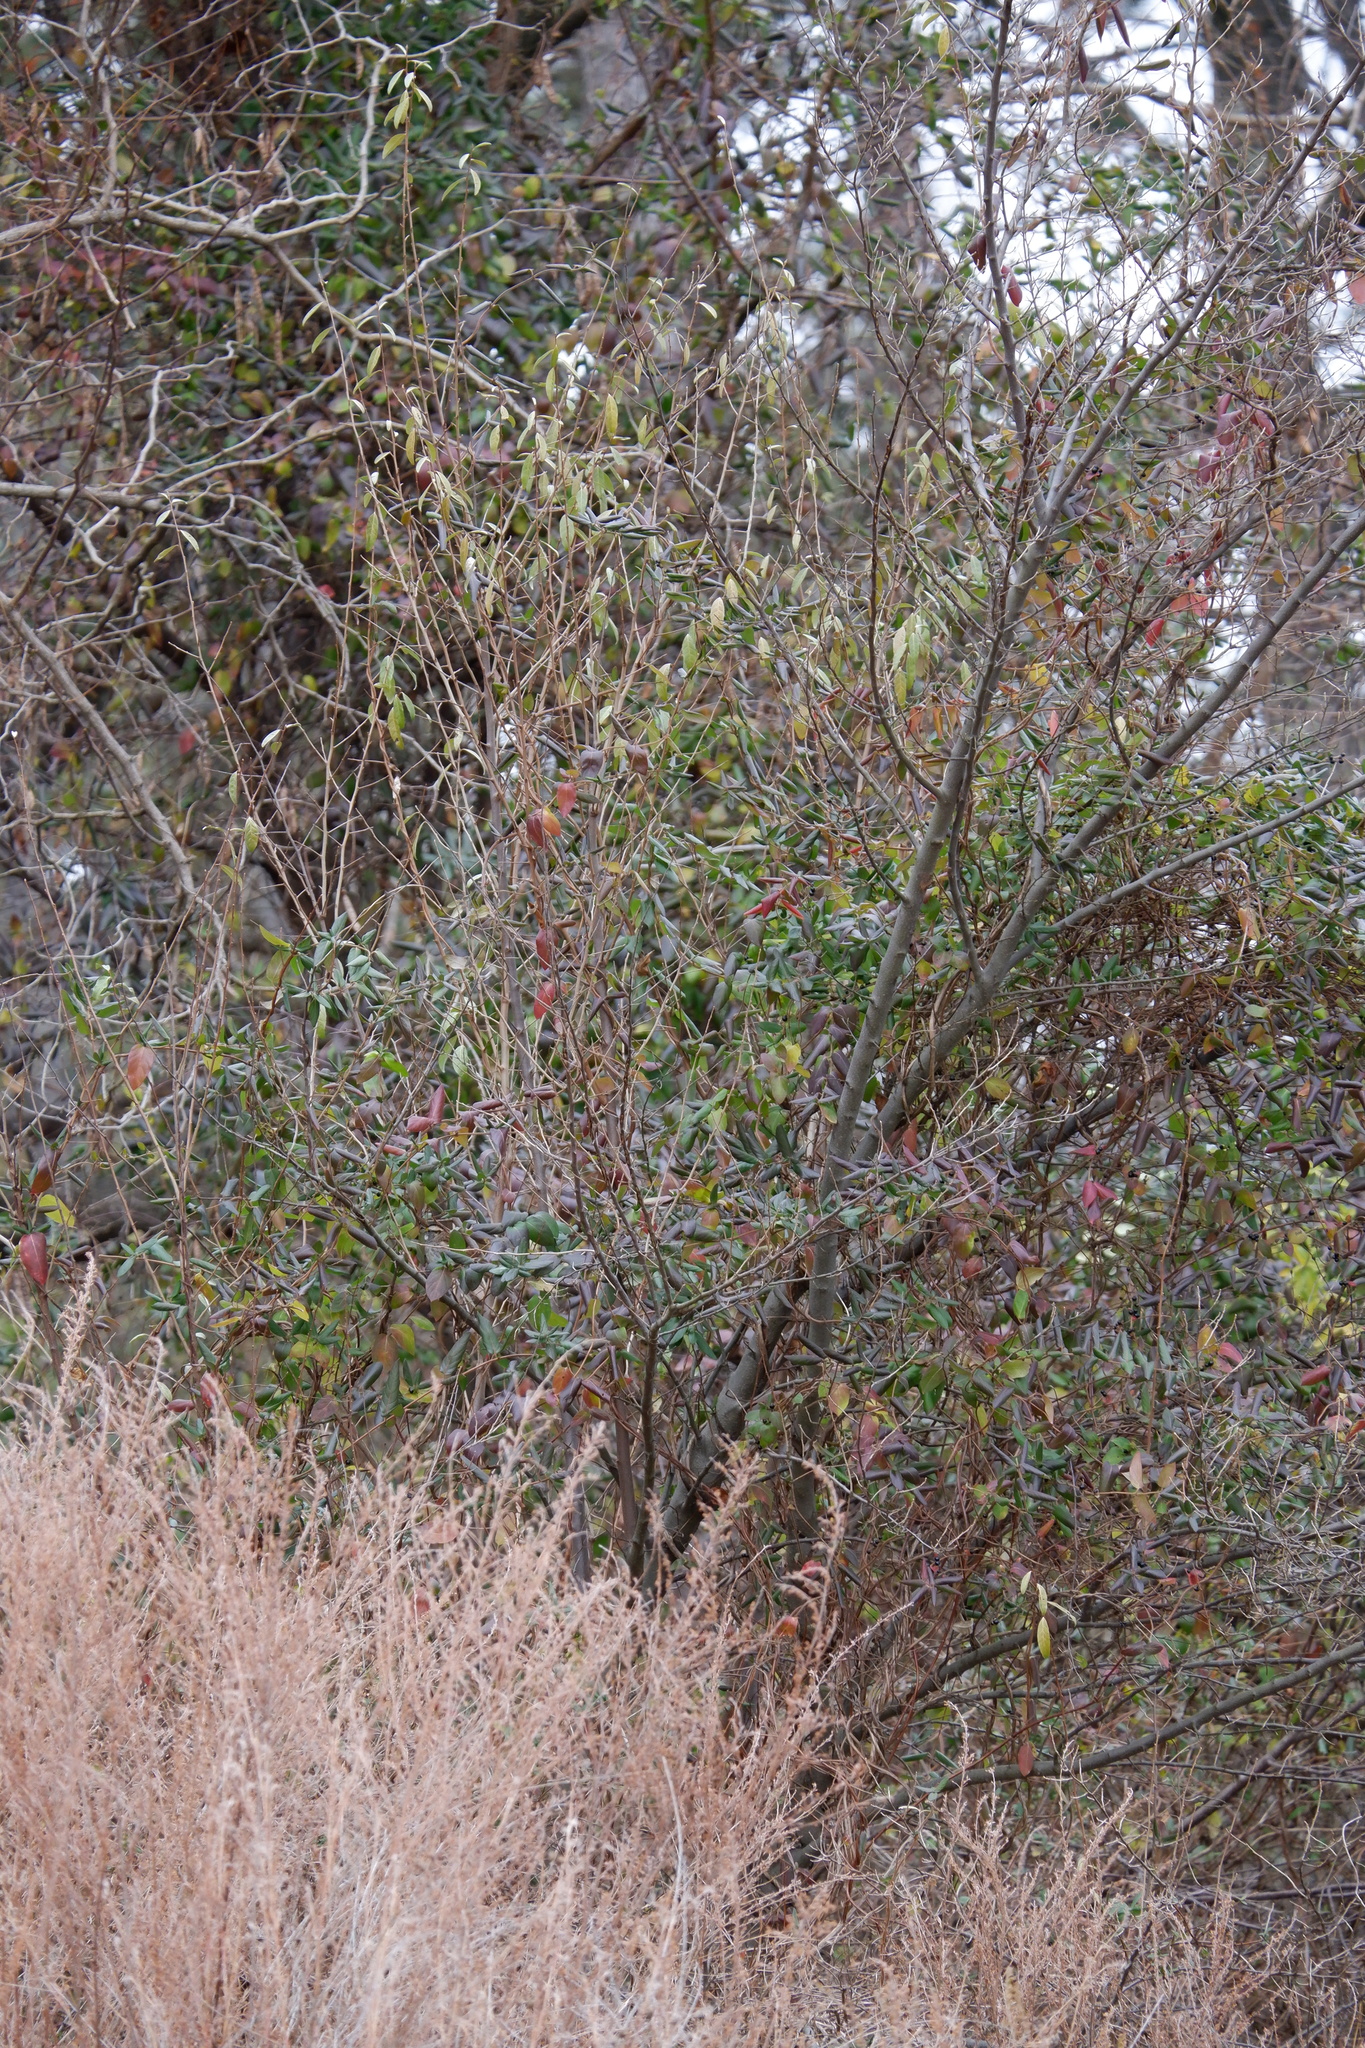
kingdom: Plantae
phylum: Tracheophyta
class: Magnoliopsida
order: Dipsacales
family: Caprifoliaceae
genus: Lonicera
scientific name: Lonicera japonica
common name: Japanese honeysuckle
